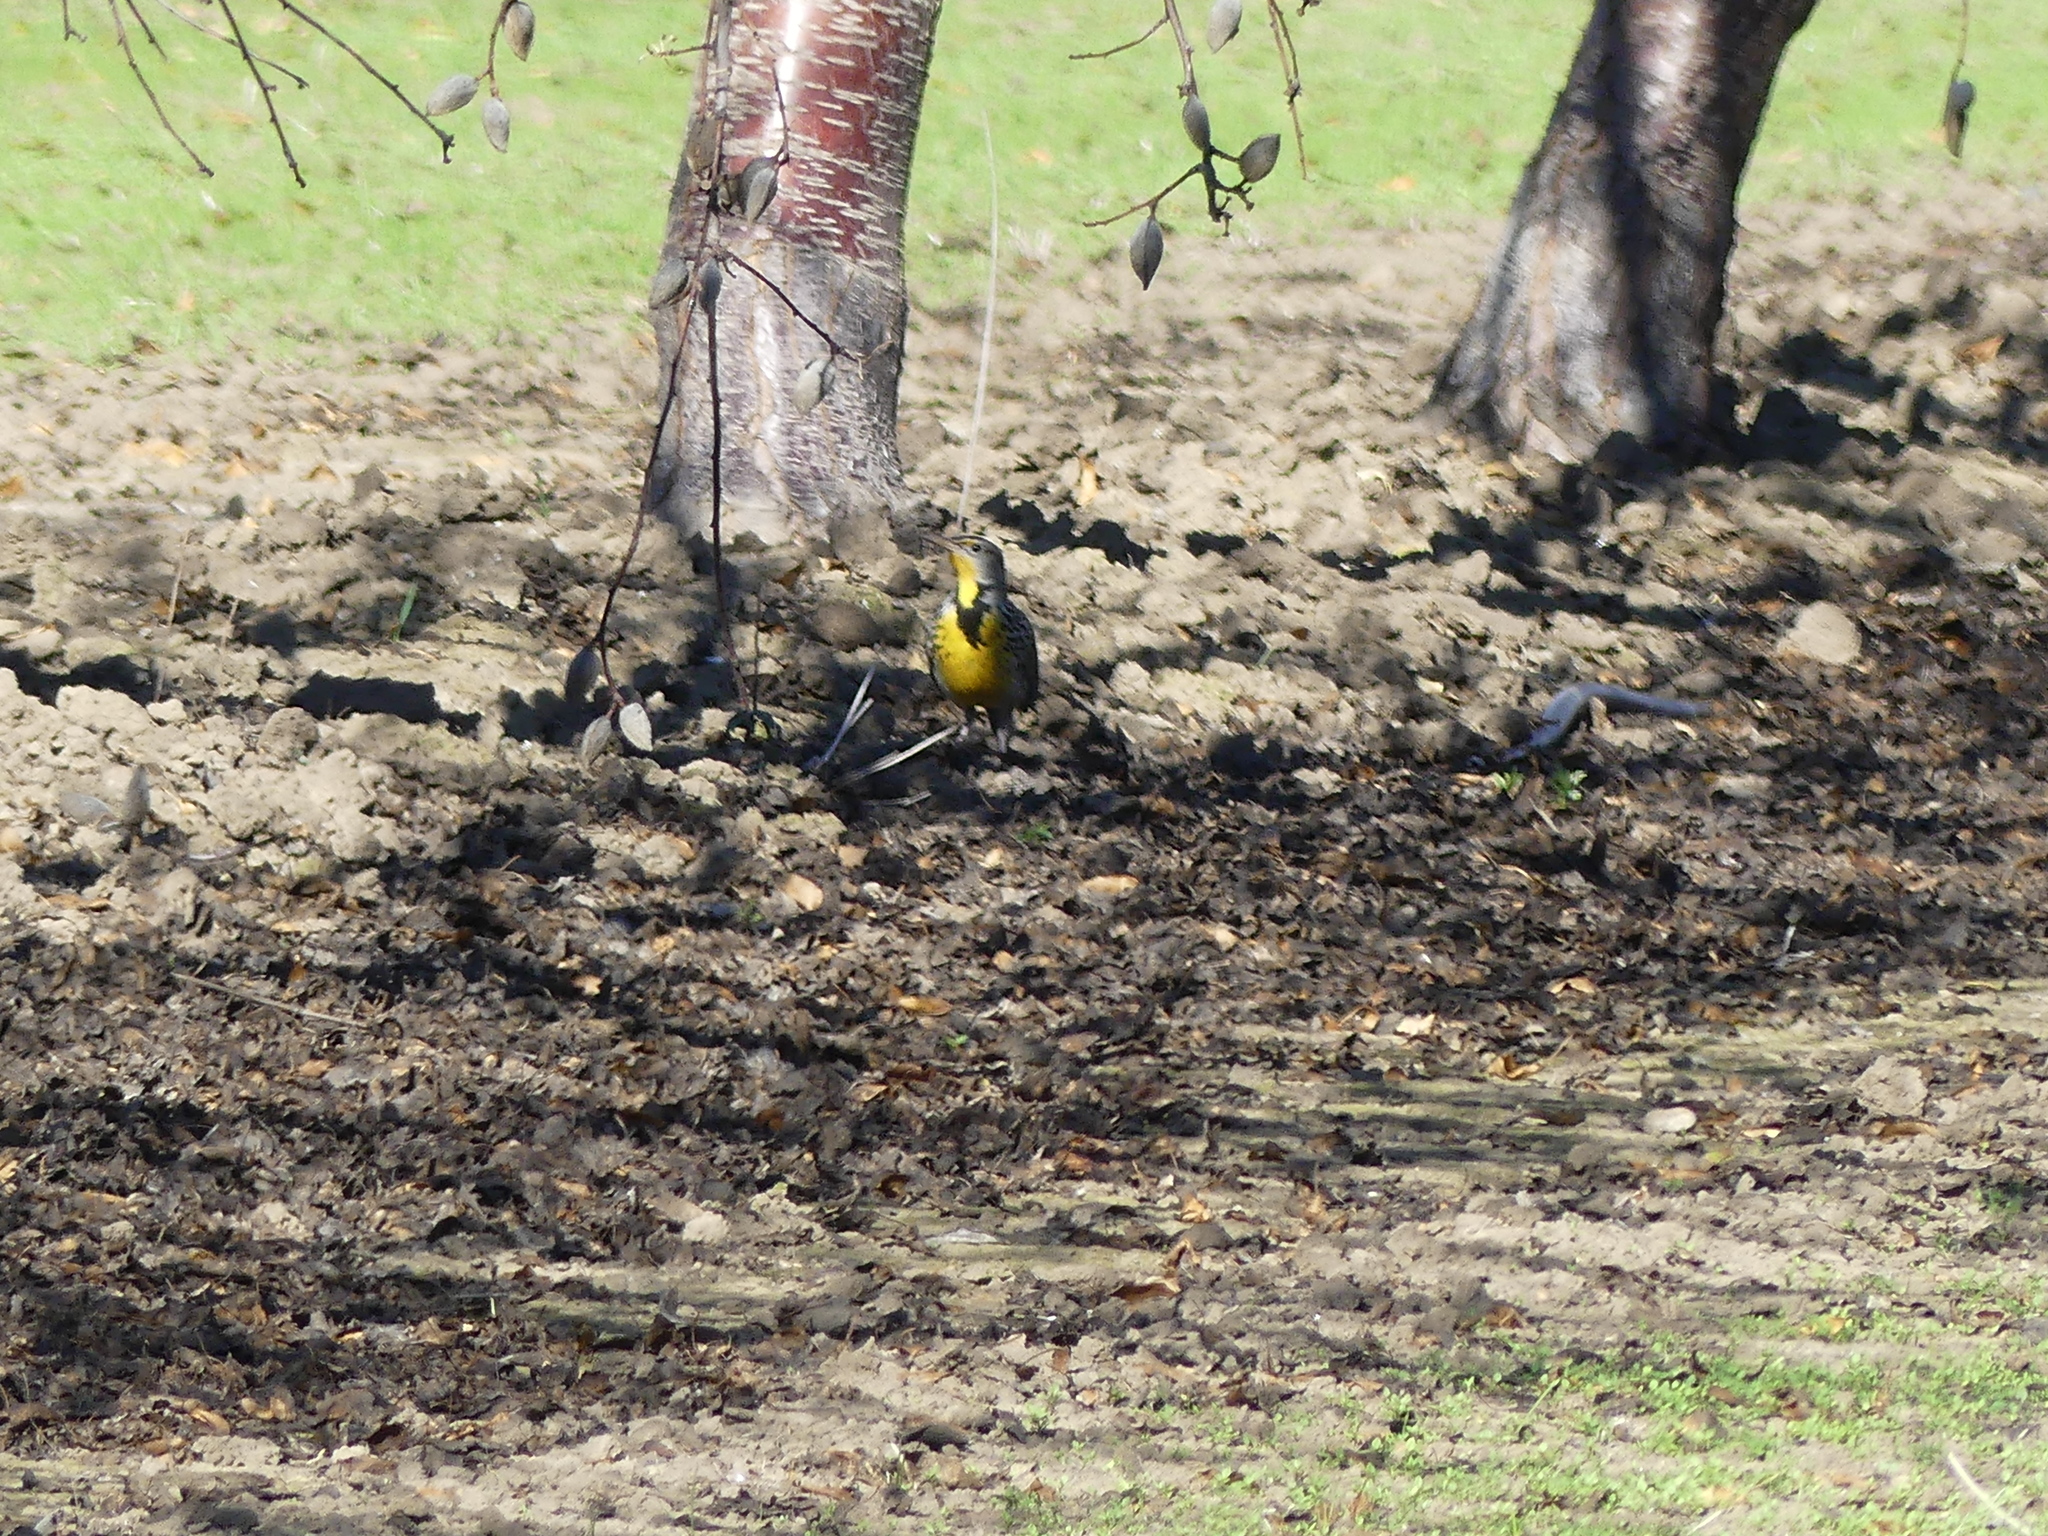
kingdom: Animalia
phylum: Chordata
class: Aves
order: Passeriformes
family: Icteridae
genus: Sturnella
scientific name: Sturnella neglecta
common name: Western meadowlark
